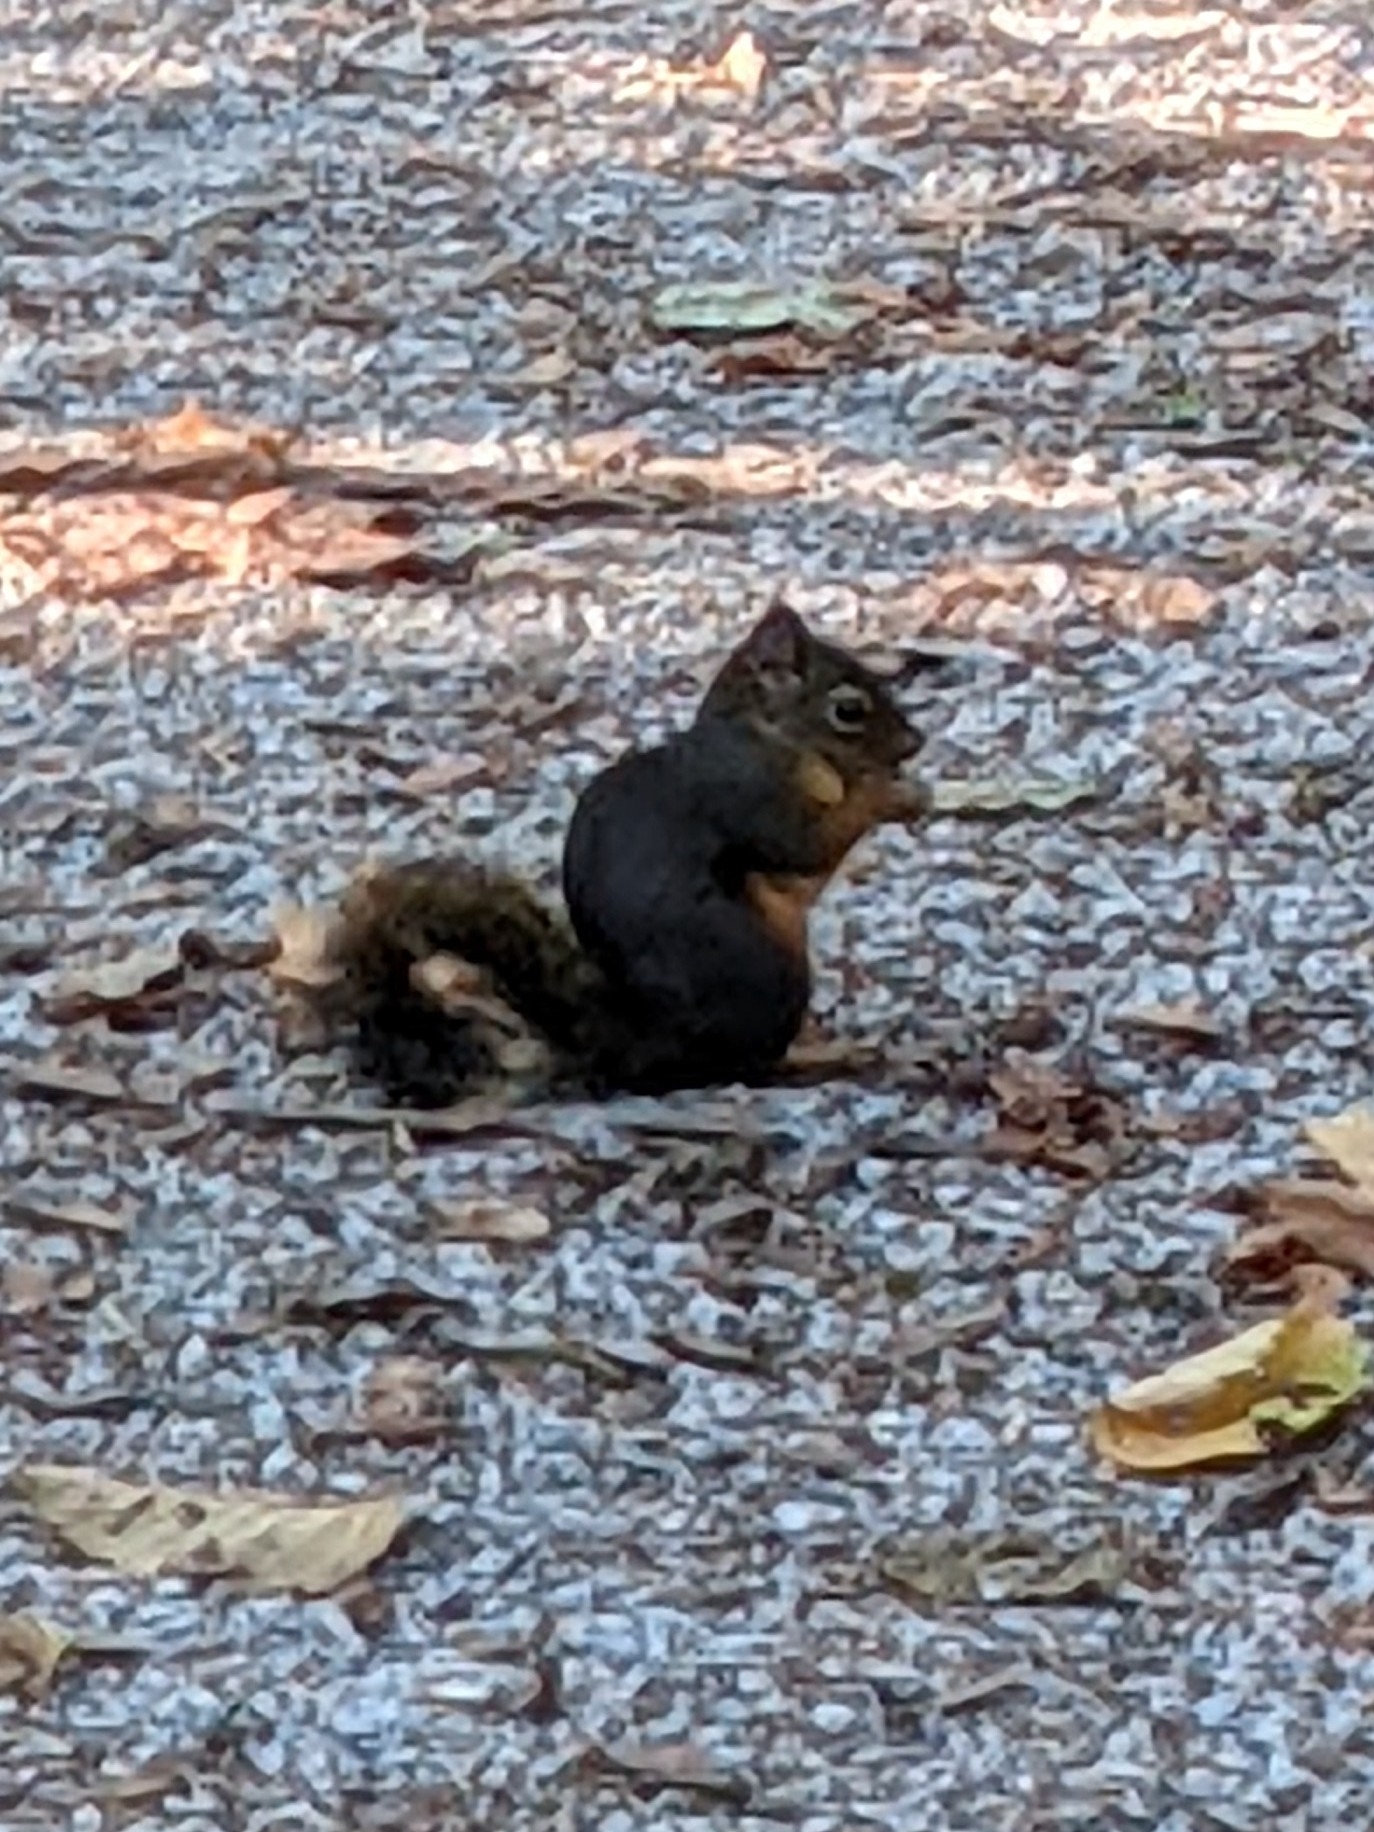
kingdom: Animalia
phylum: Chordata
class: Mammalia
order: Rodentia
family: Sciuridae
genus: Tamiasciurus
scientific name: Tamiasciurus douglasii
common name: Douglas's squirrel
